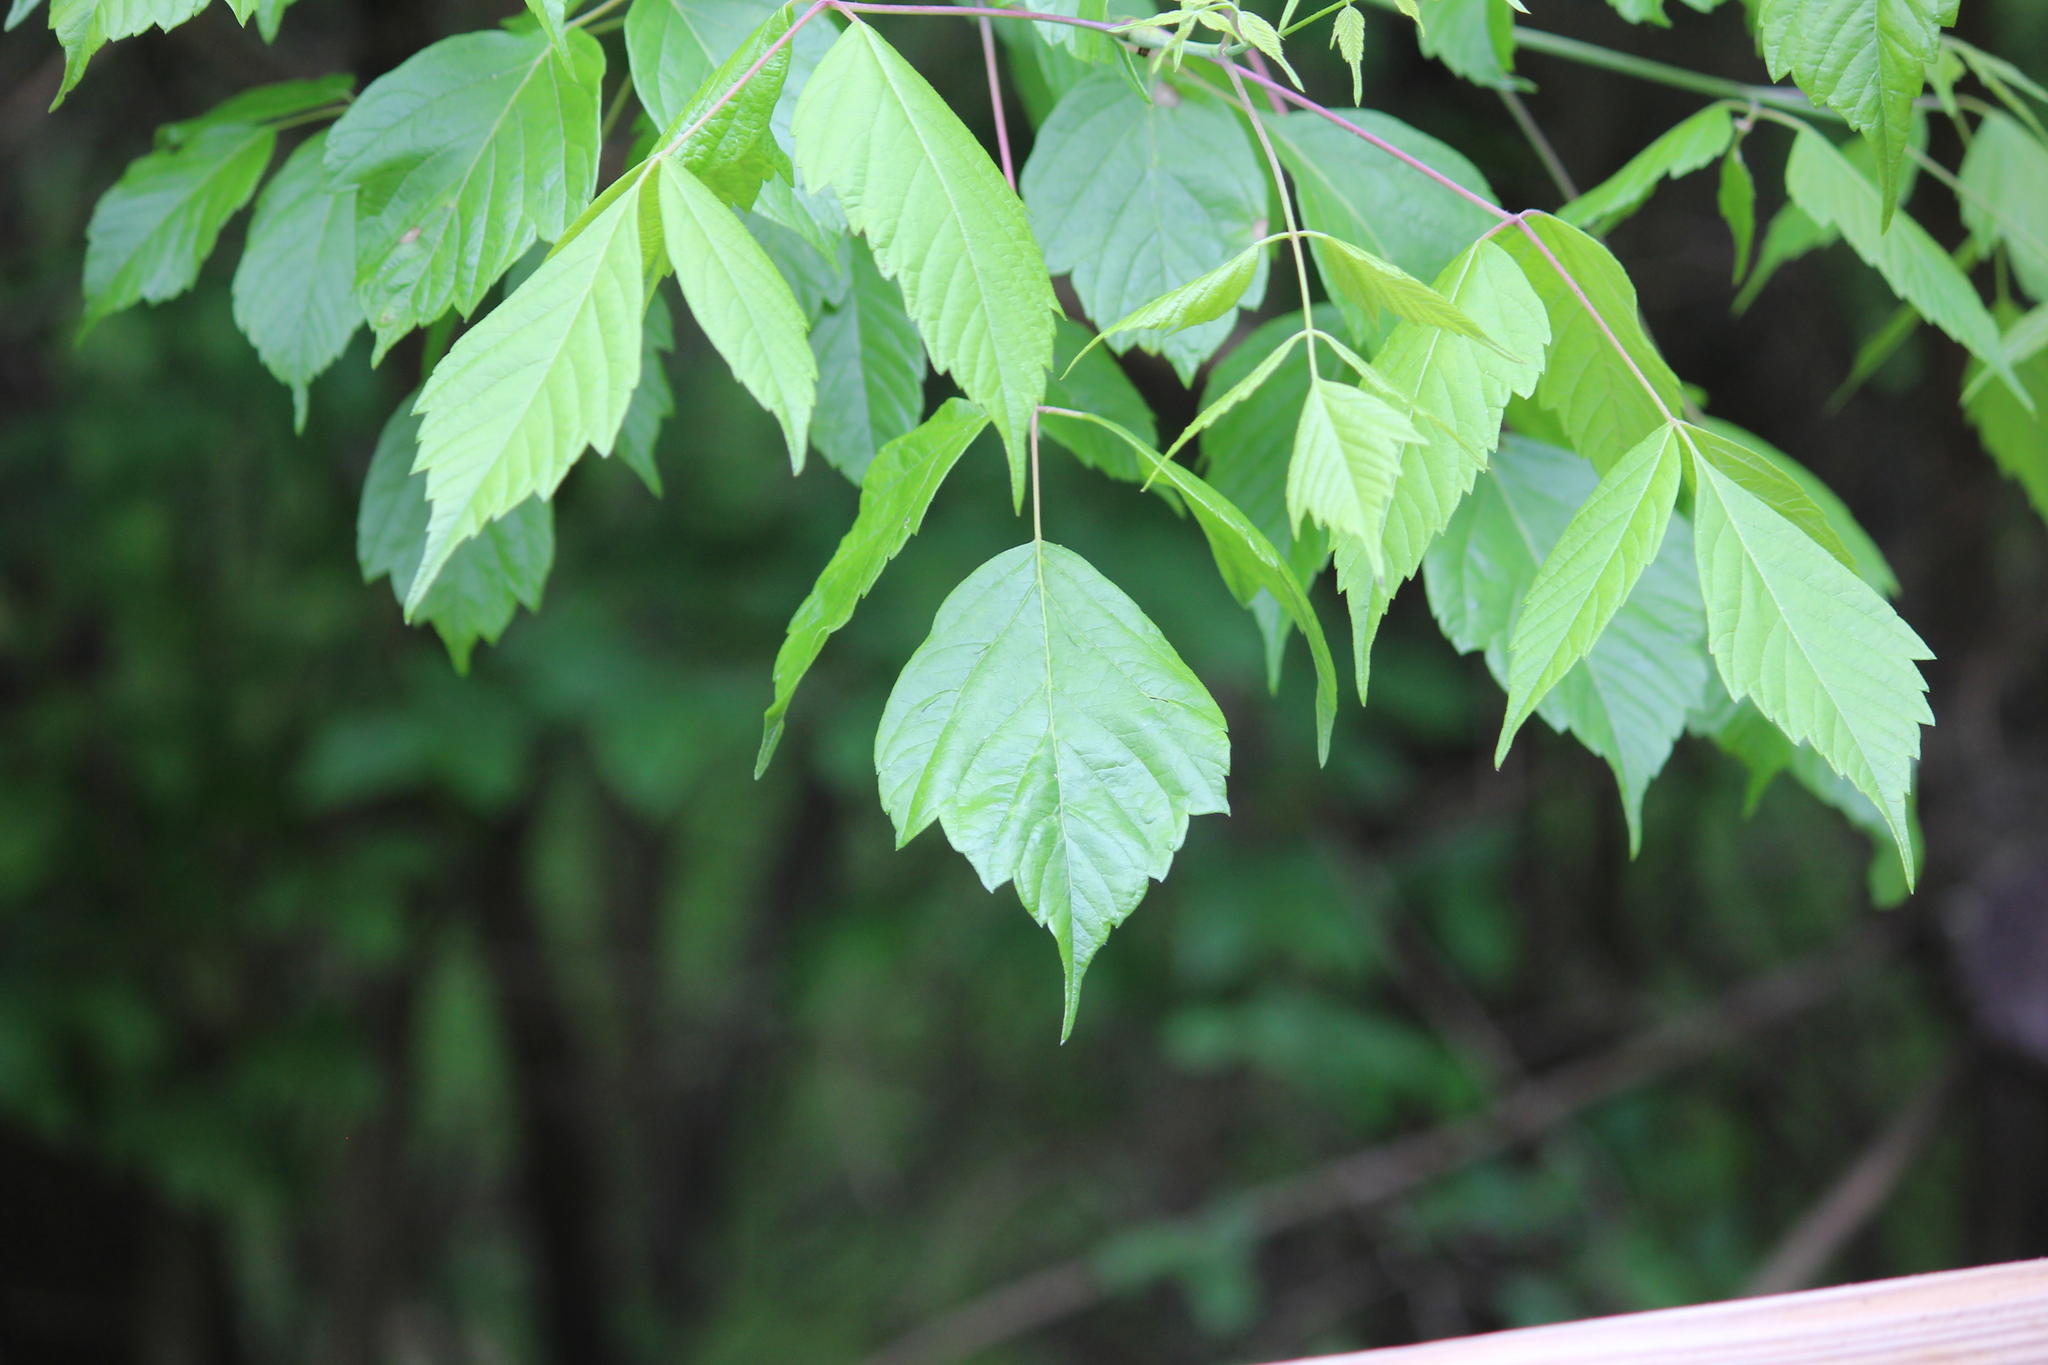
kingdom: Plantae
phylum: Tracheophyta
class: Magnoliopsida
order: Sapindales
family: Sapindaceae
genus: Acer
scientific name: Acer negundo
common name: Ashleaf maple
